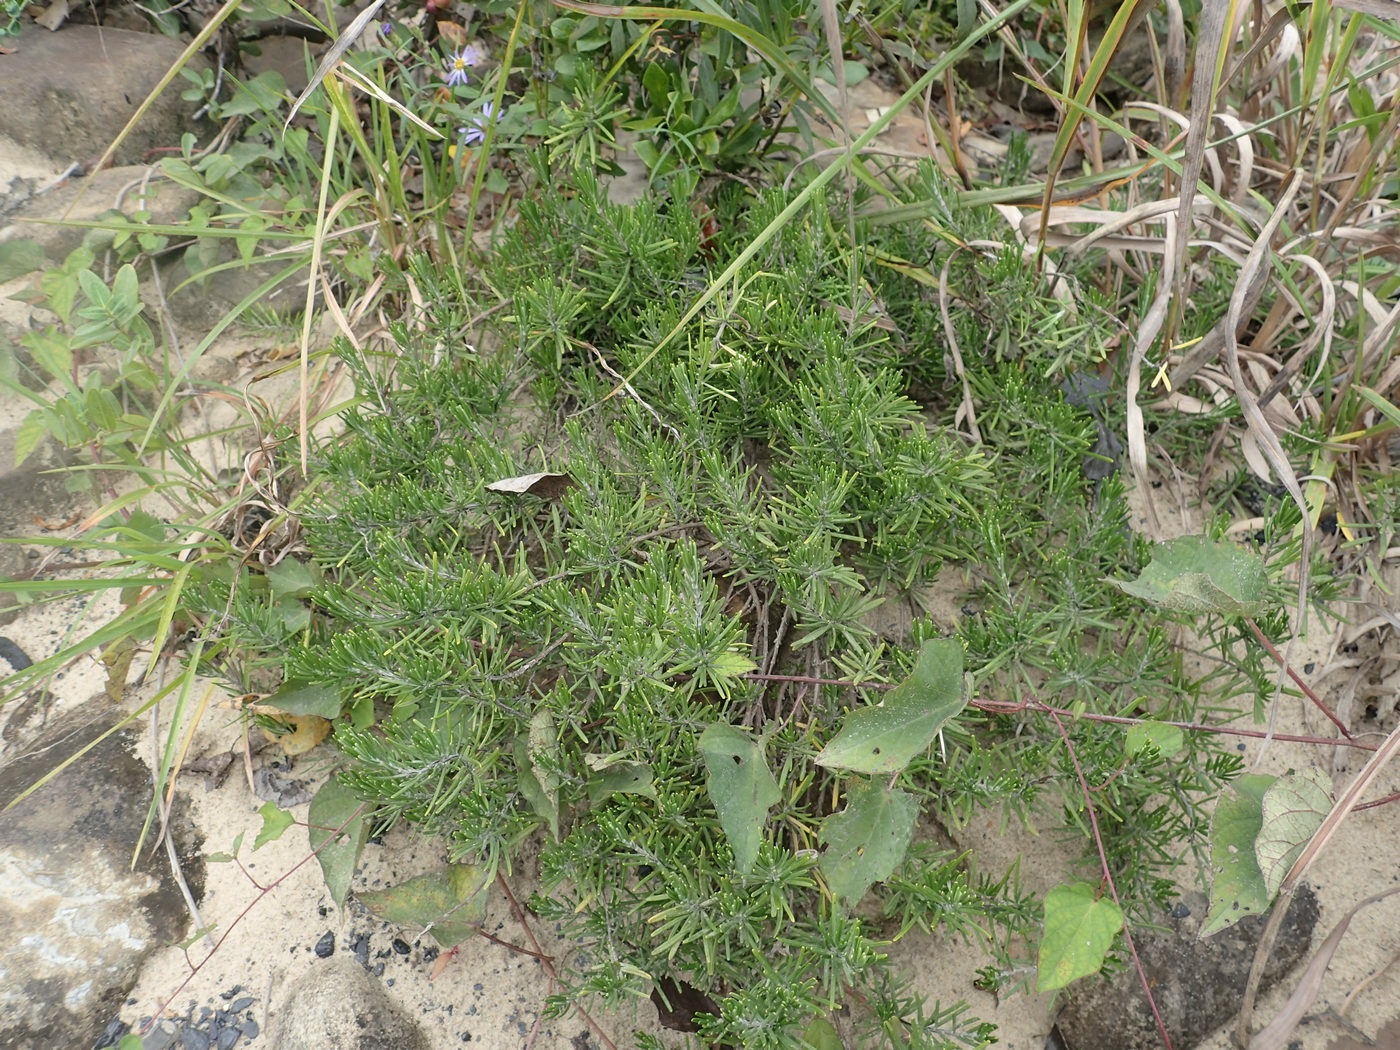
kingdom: Plantae
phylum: Tracheophyta
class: Magnoliopsida
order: Lamiales
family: Lamiaceae
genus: Conradina
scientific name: Conradina verticillata
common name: Cumberland-rosemary
